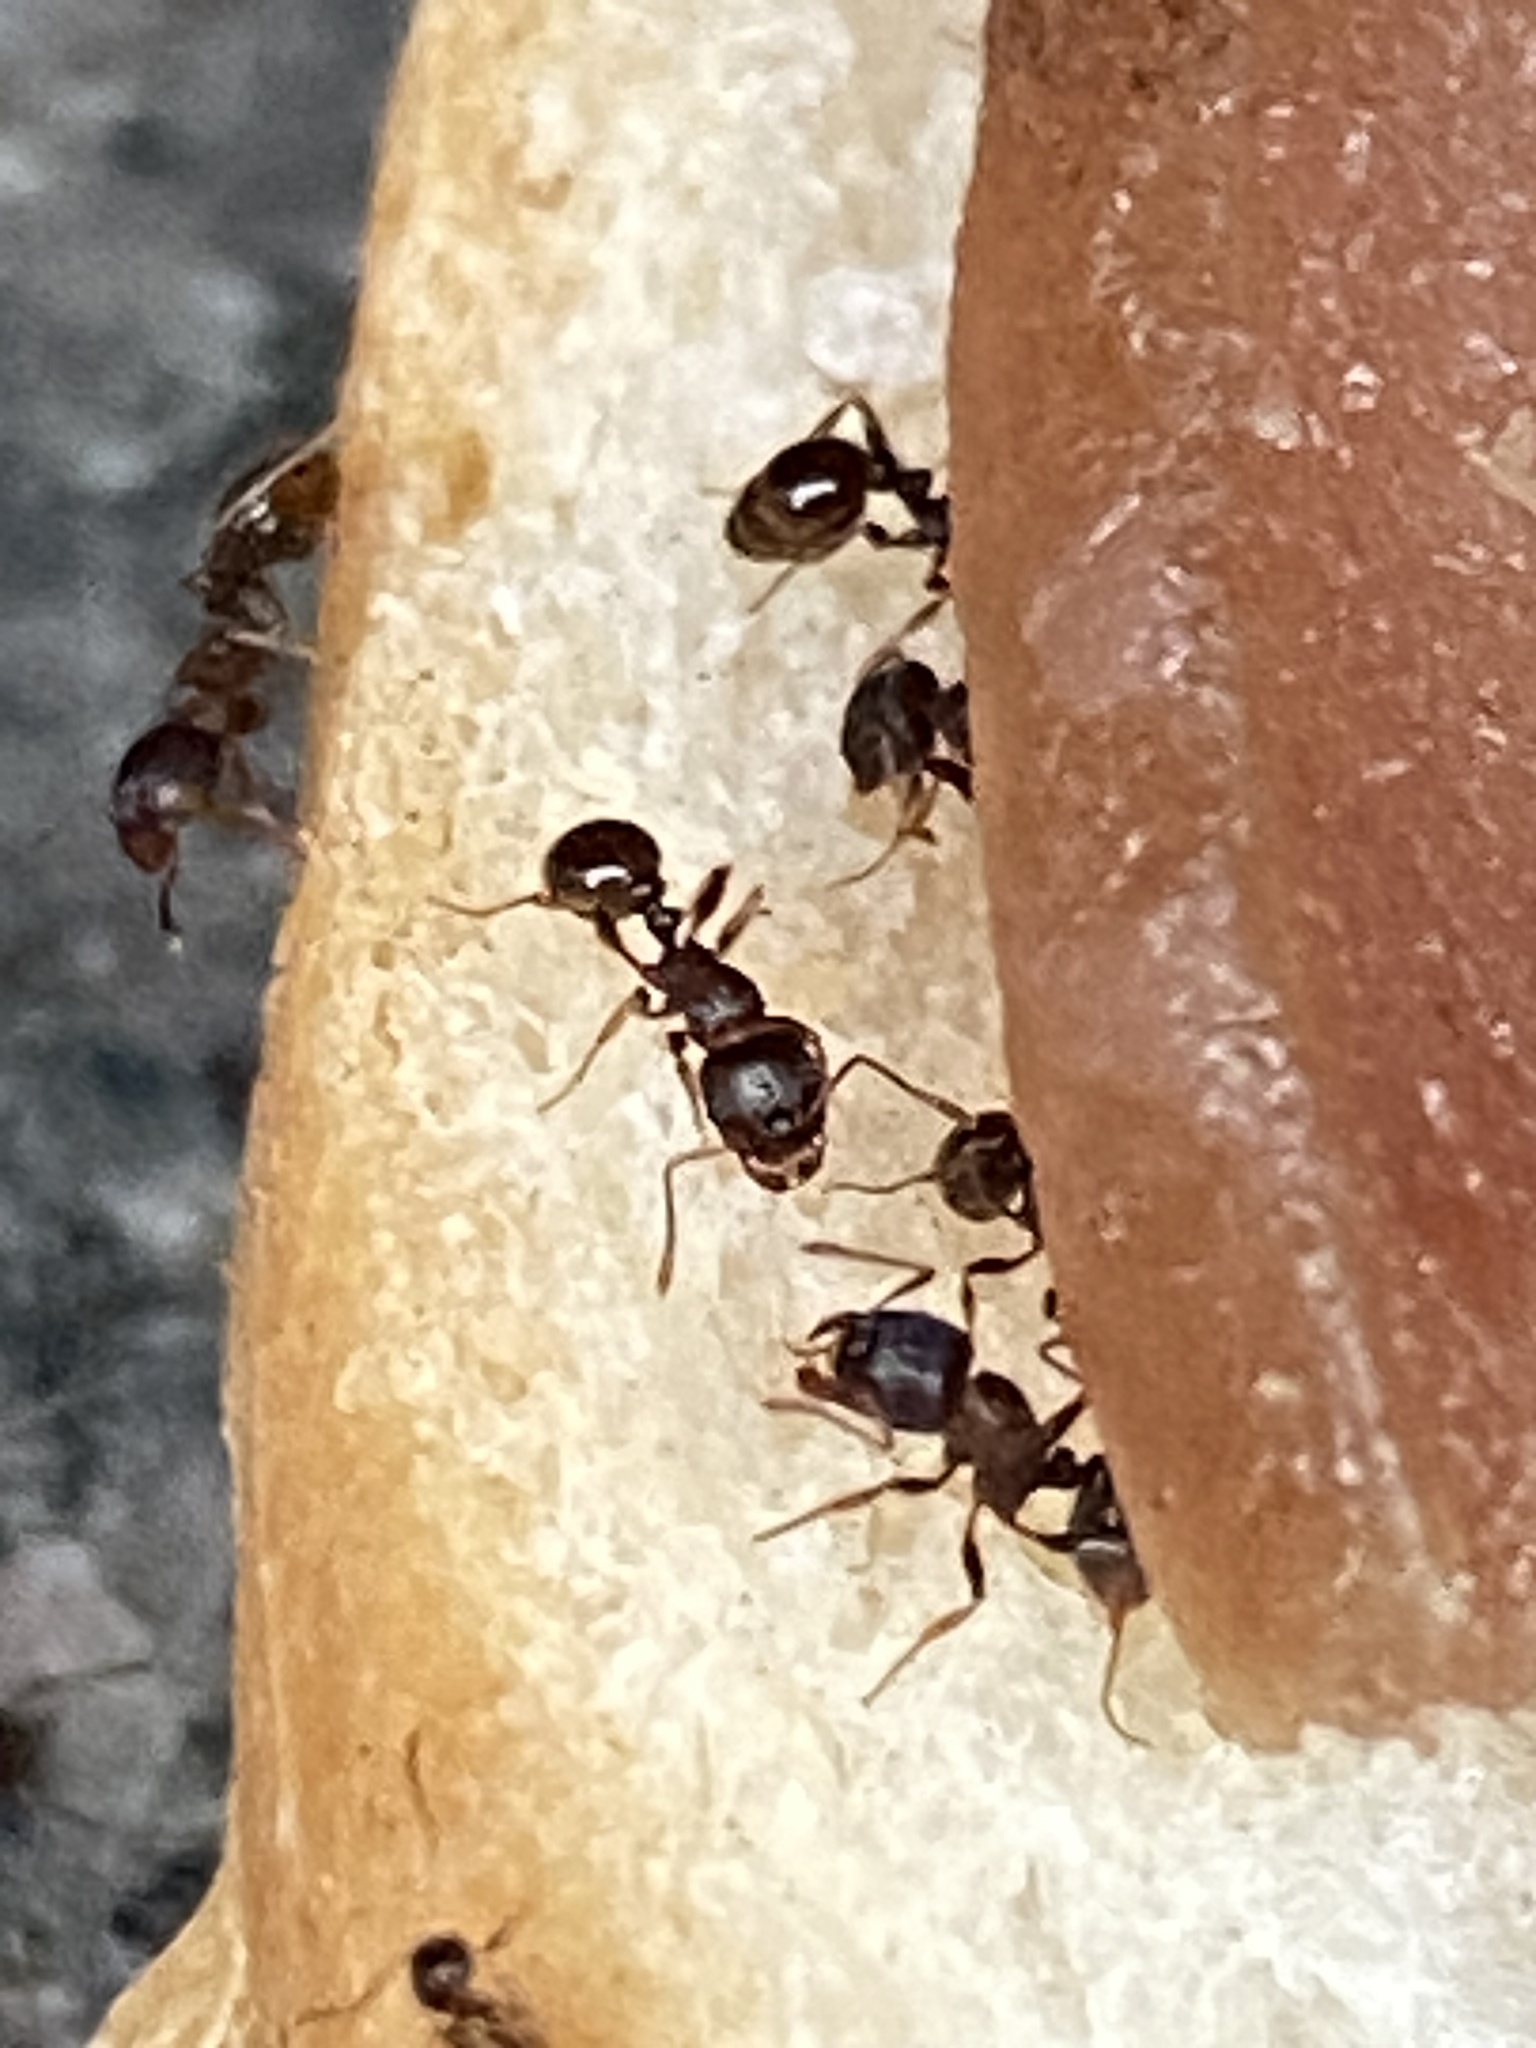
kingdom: Animalia
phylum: Arthropoda
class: Insecta
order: Hymenoptera
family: Formicidae
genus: Tetramorium
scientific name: Tetramorium immigrans
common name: Pavement ant
